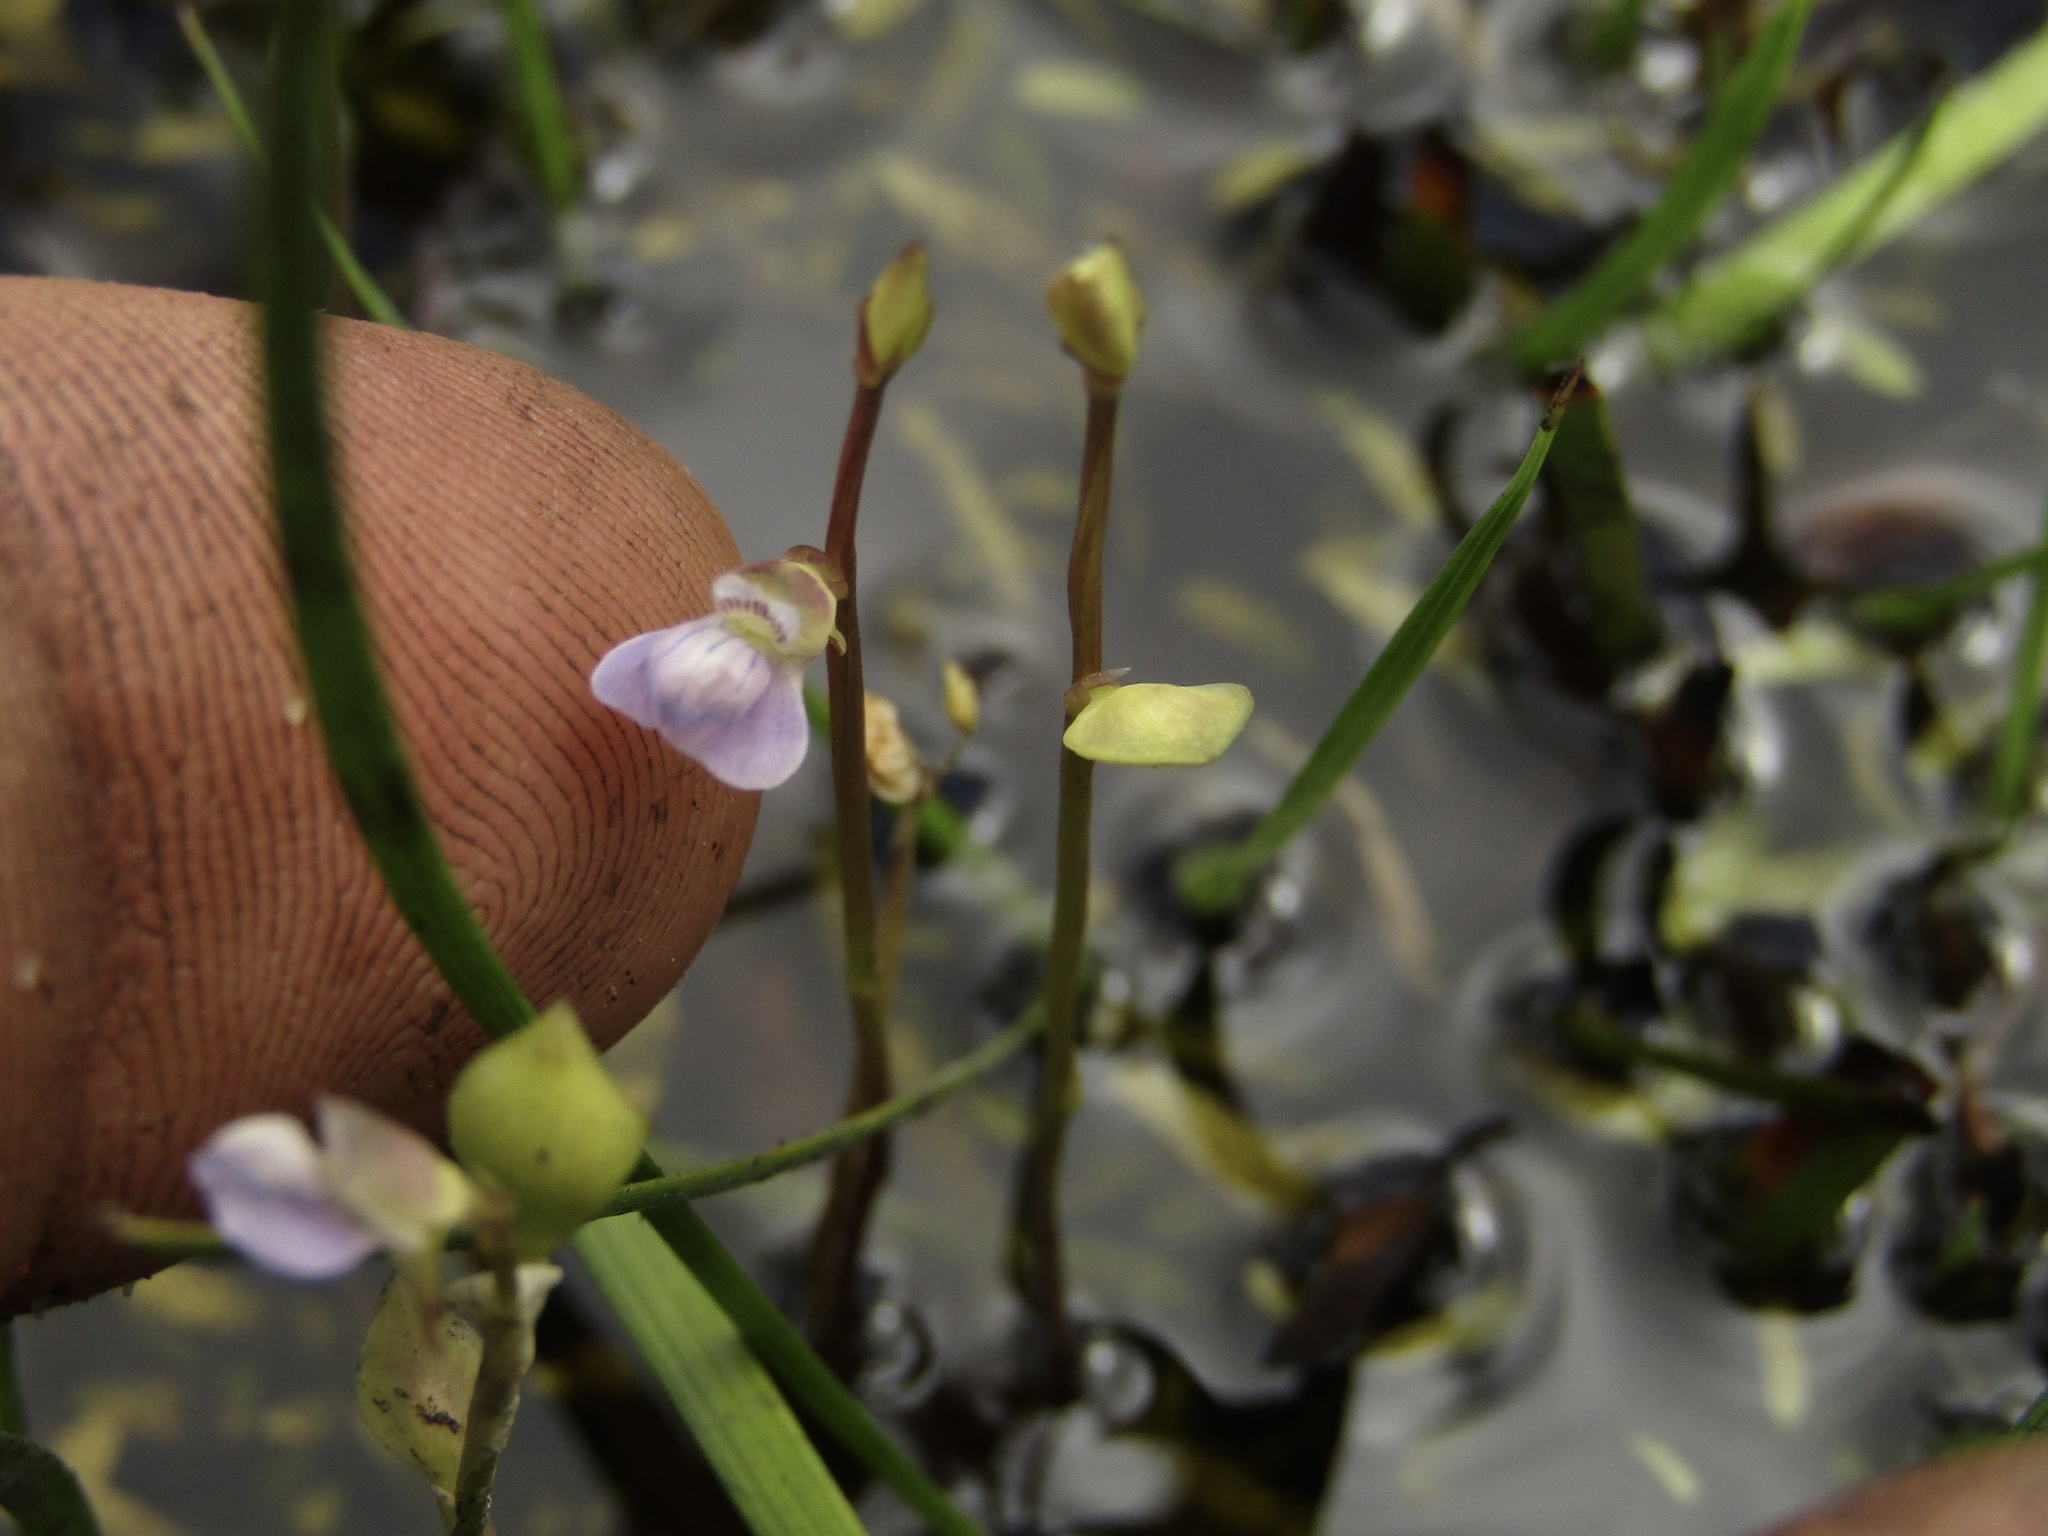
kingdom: Plantae
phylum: Tracheophyta
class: Magnoliopsida
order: Lamiales
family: Lentibulariaceae
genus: Utricularia
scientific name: Utricularia uliginosa
